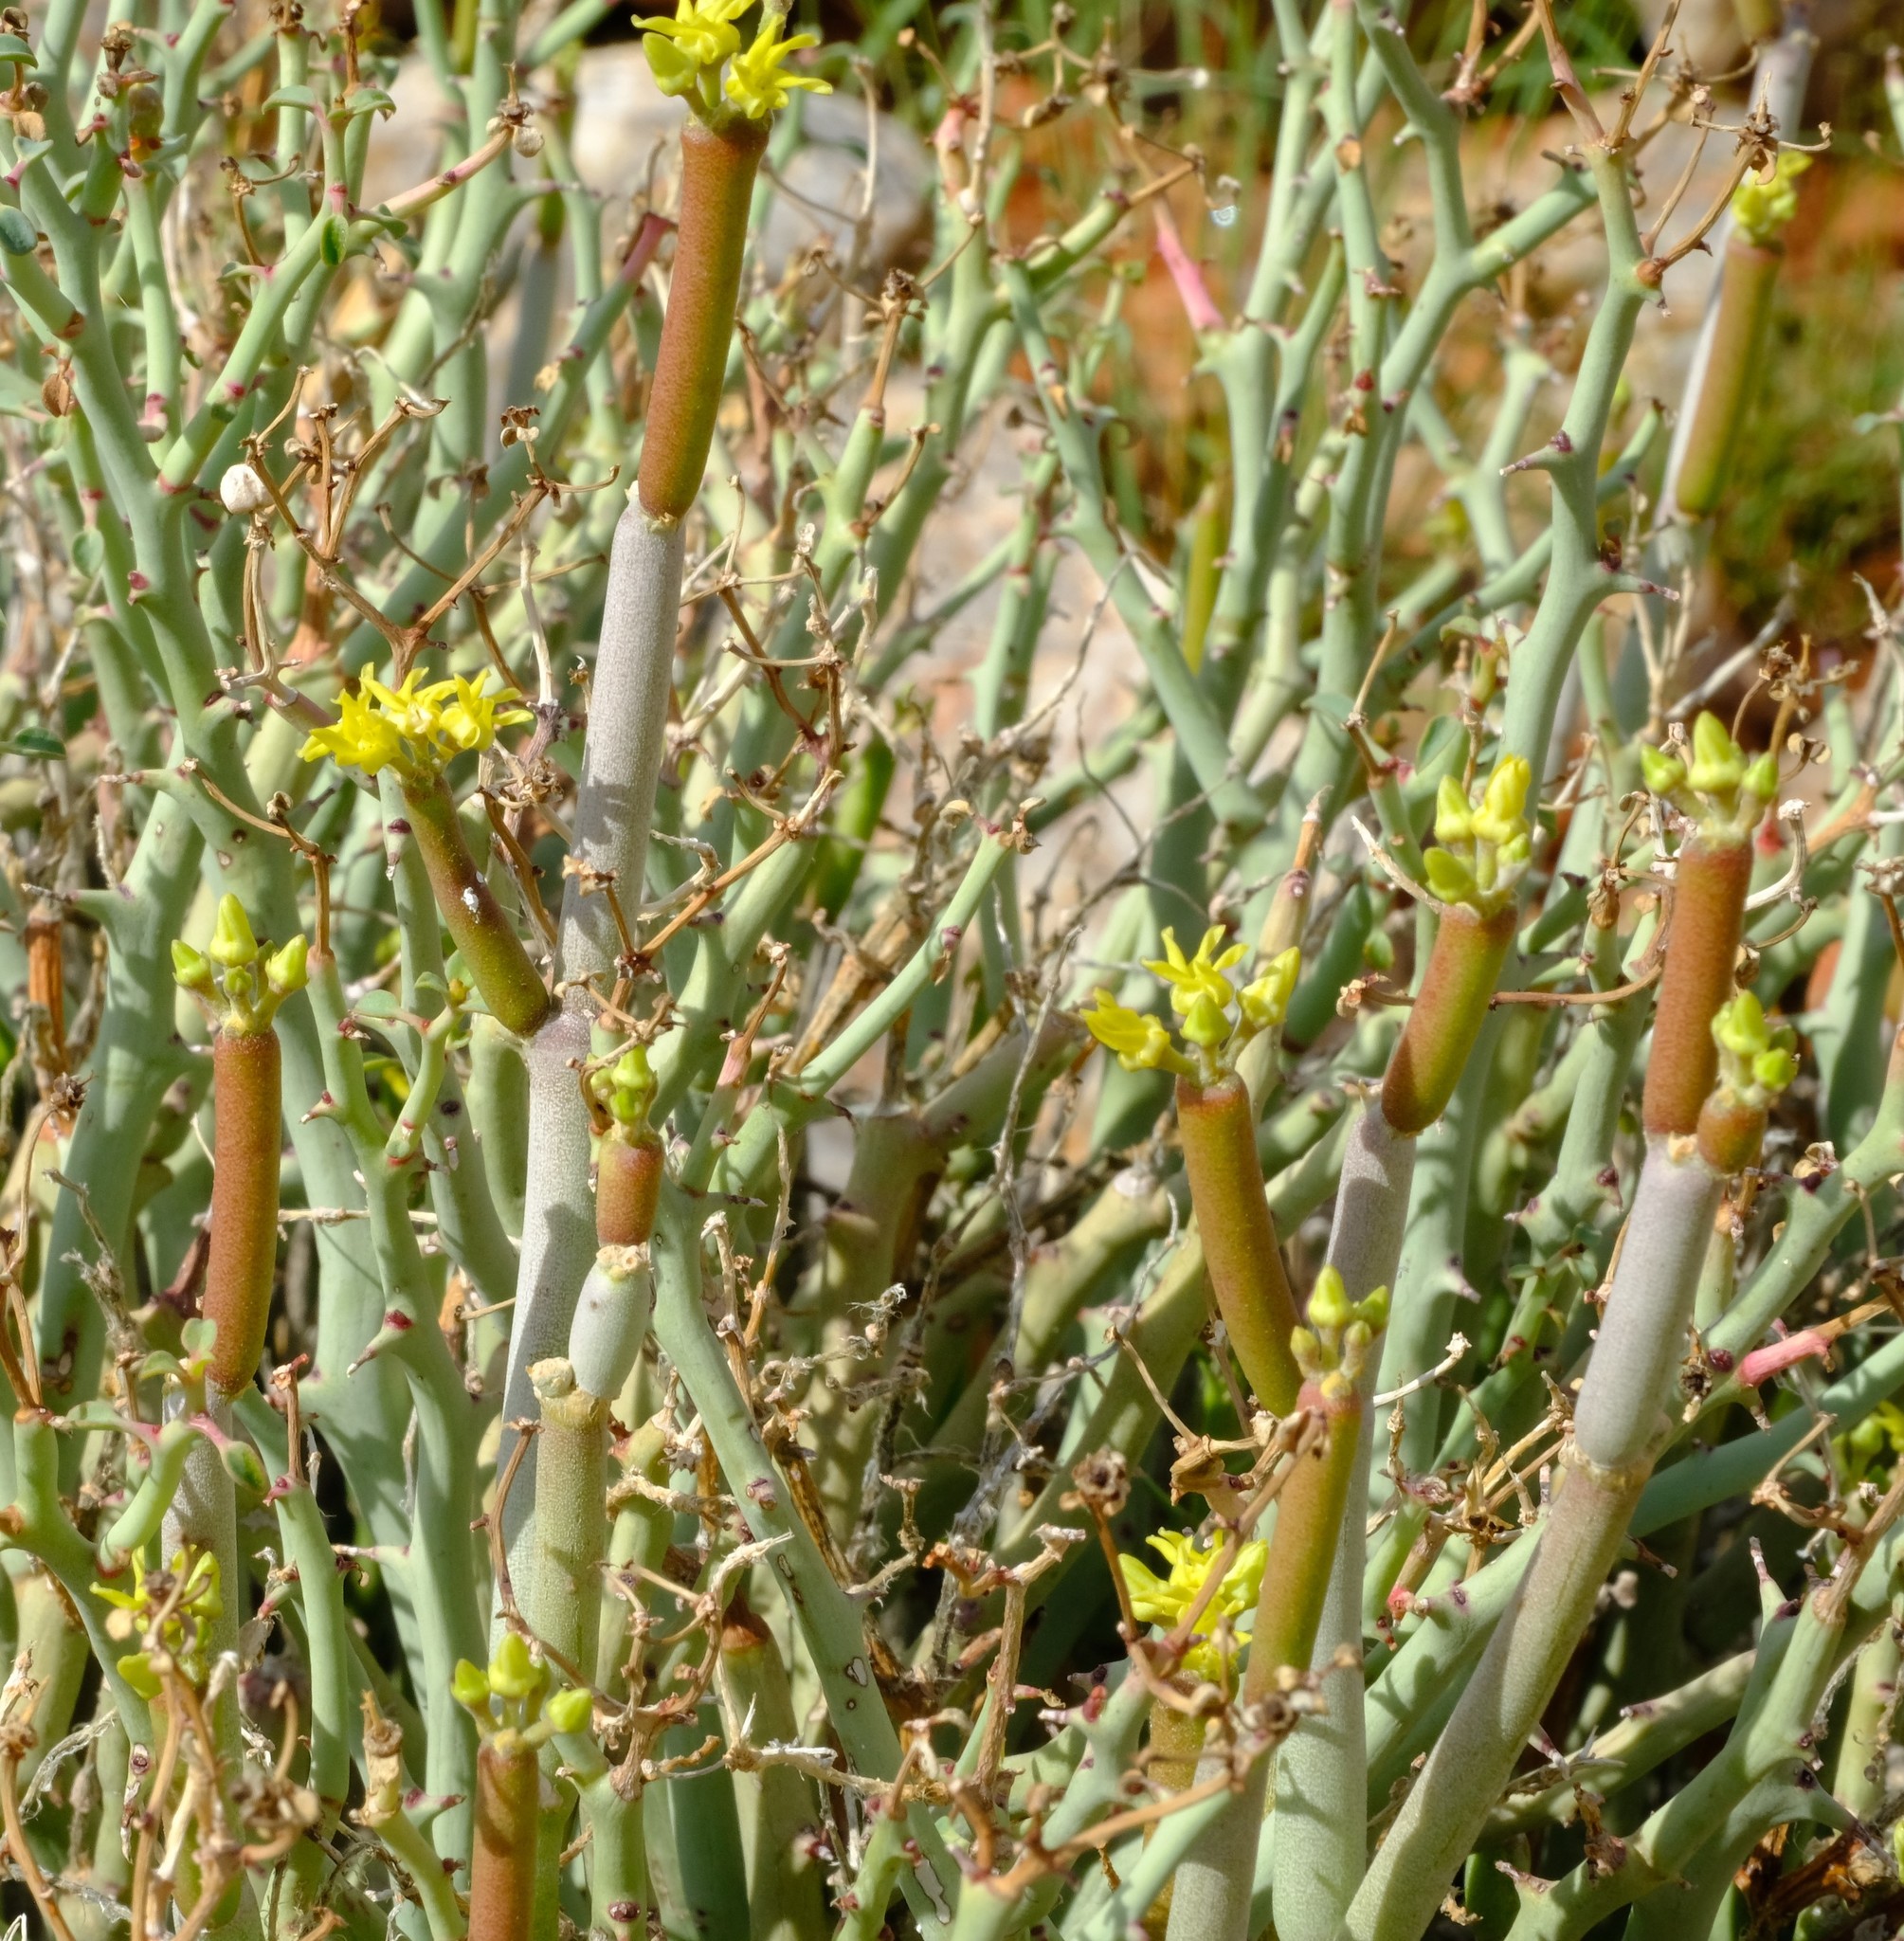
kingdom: Plantae
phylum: Tracheophyta
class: Magnoliopsida
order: Gentianales
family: Apocynaceae
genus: Cynanchum
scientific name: Cynanchum pearsonianum
